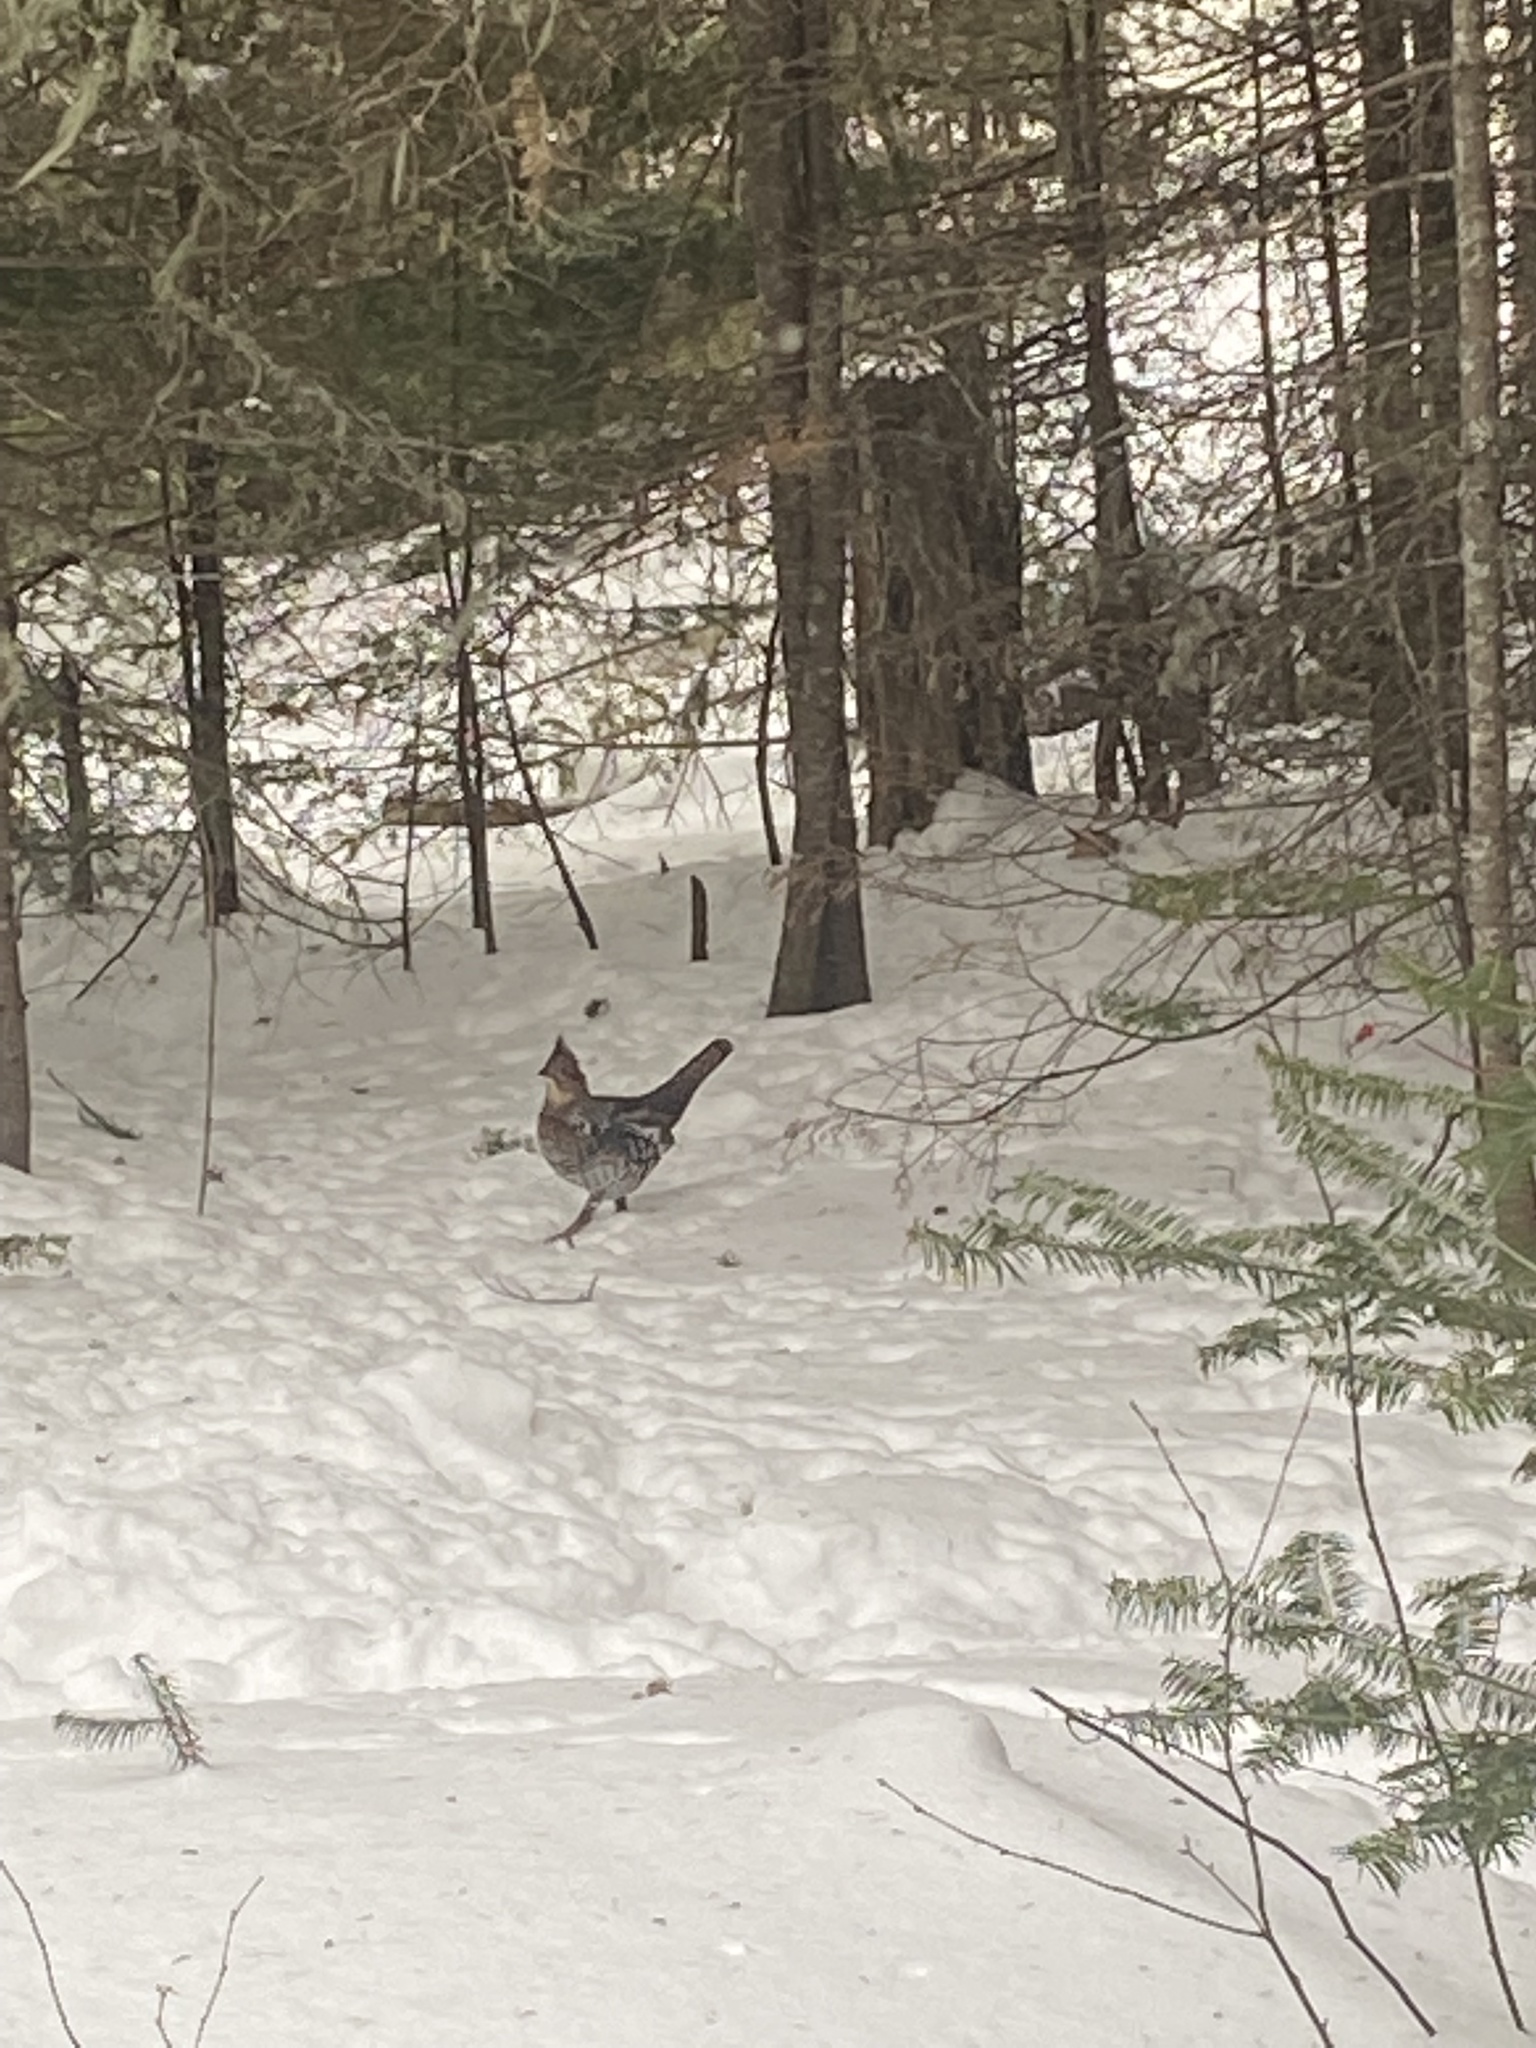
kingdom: Animalia
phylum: Chordata
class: Aves
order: Galliformes
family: Phasianidae
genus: Bonasa
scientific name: Bonasa umbellus
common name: Ruffed grouse
